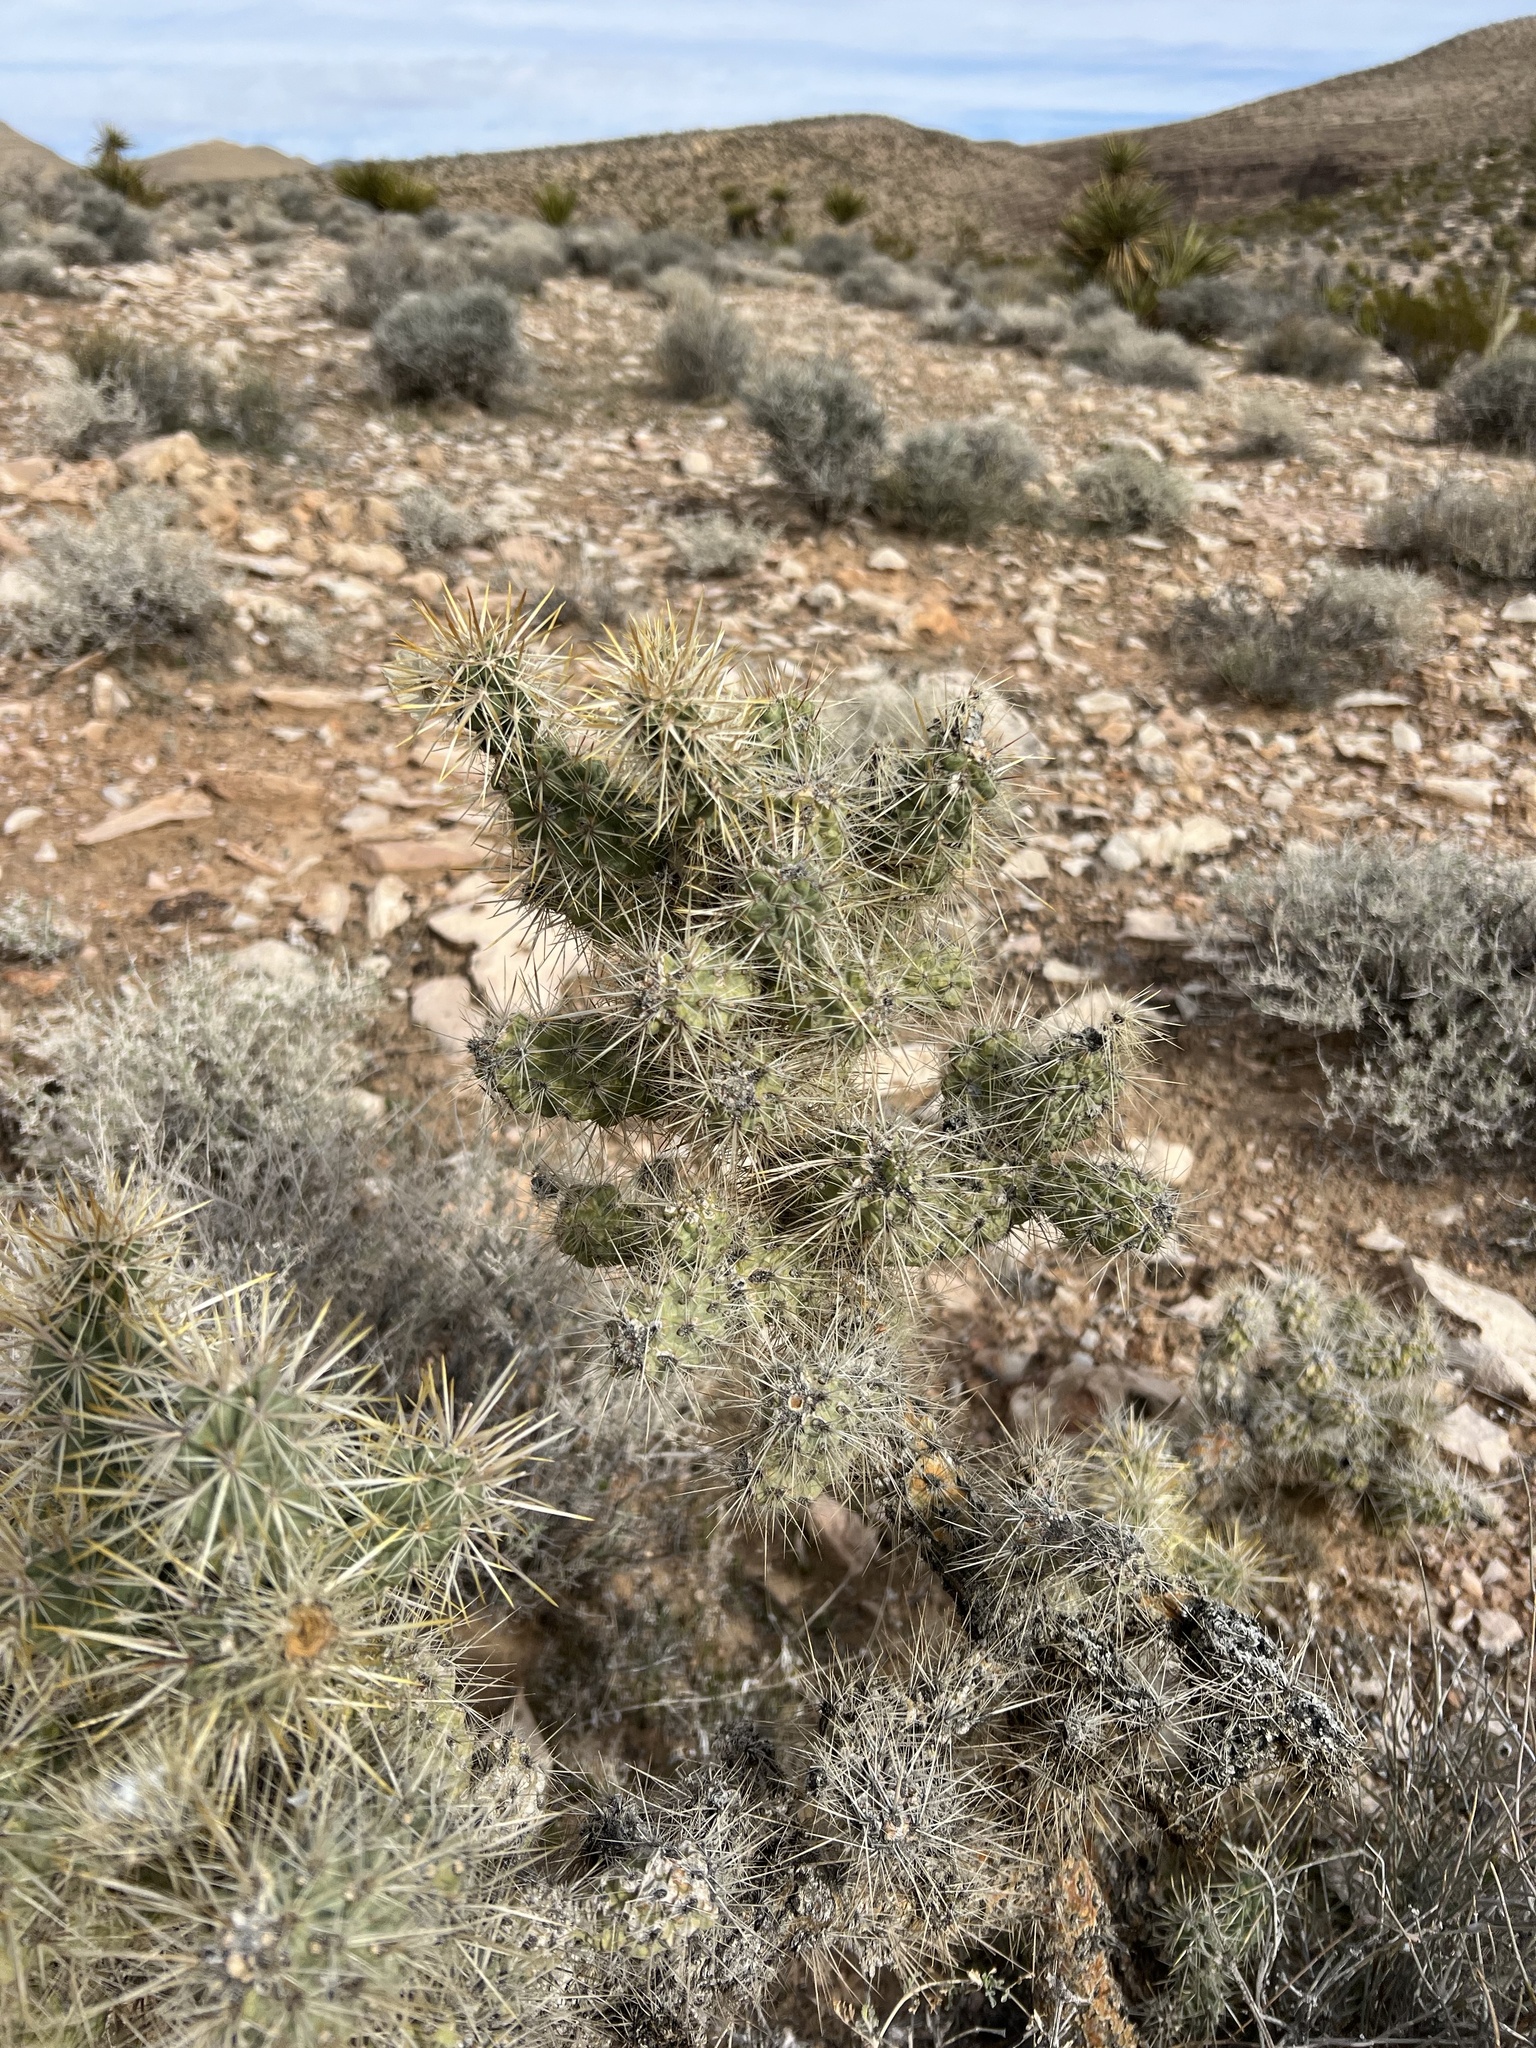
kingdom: Plantae
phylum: Tracheophyta
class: Magnoliopsida
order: Caryophyllales
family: Cactaceae
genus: Cylindropuntia
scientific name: Cylindropuntia echinocarpa
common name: Ground cholla
